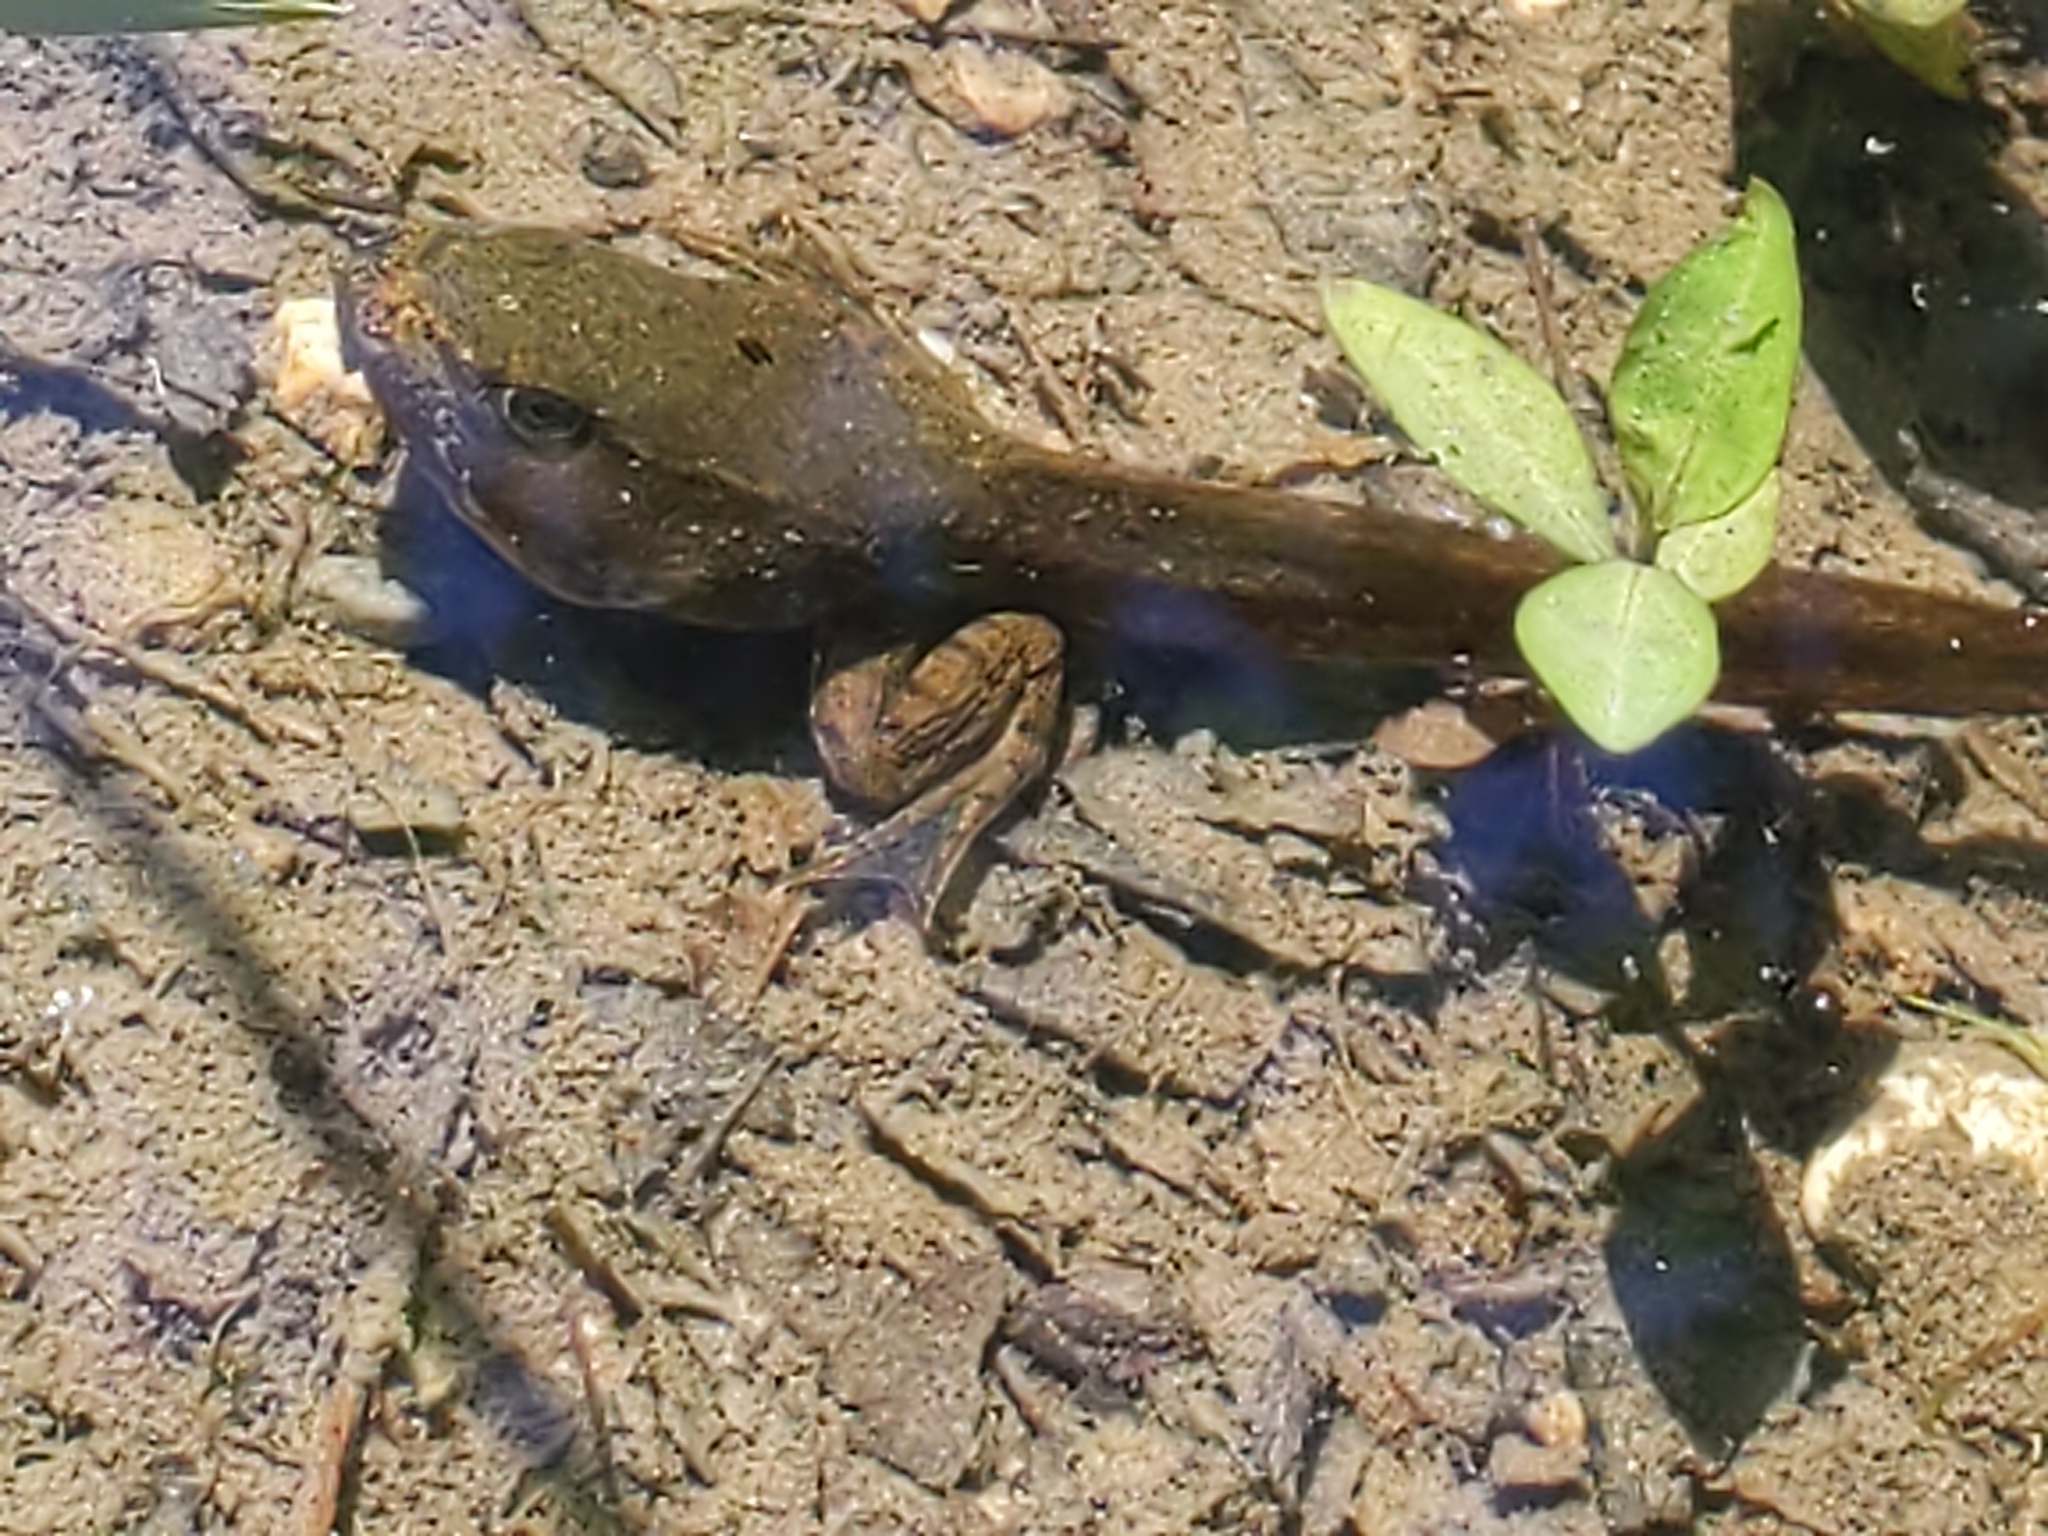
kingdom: Animalia
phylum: Chordata
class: Amphibia
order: Anura
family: Ranidae
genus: Lithobates
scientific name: Lithobates clamitans
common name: Green frog
